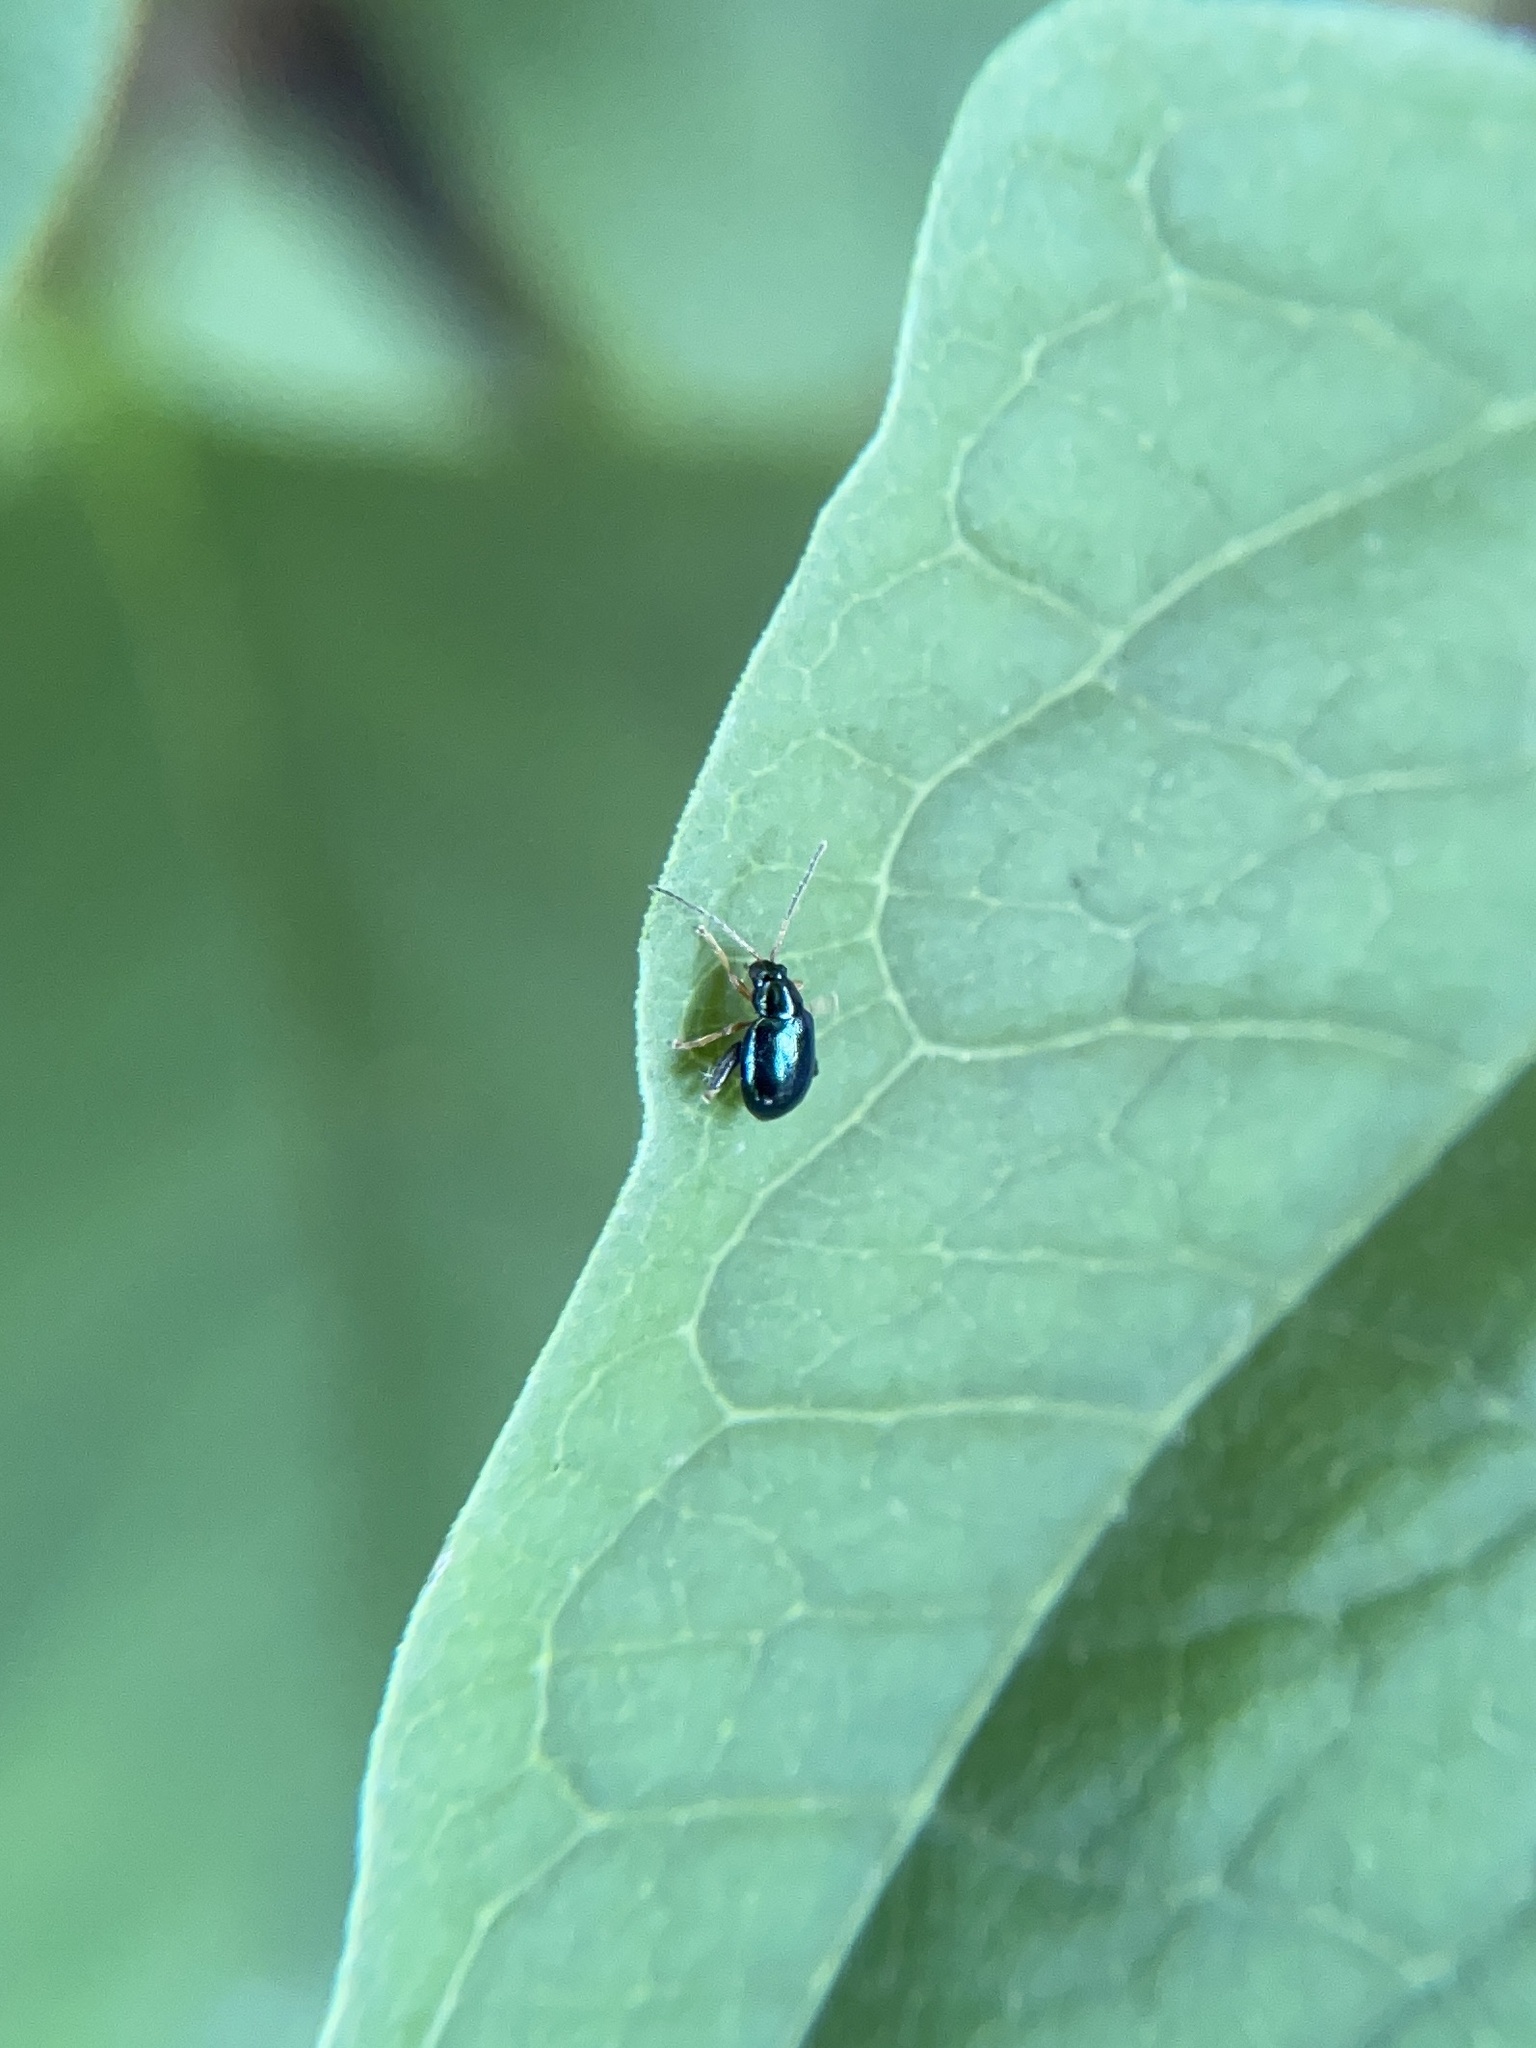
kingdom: Animalia
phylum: Arthropoda
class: Insecta
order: Coleoptera
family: Chrysomelidae
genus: Aphthona
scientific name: Aphthona nonstriata
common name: Iris flea beetle
